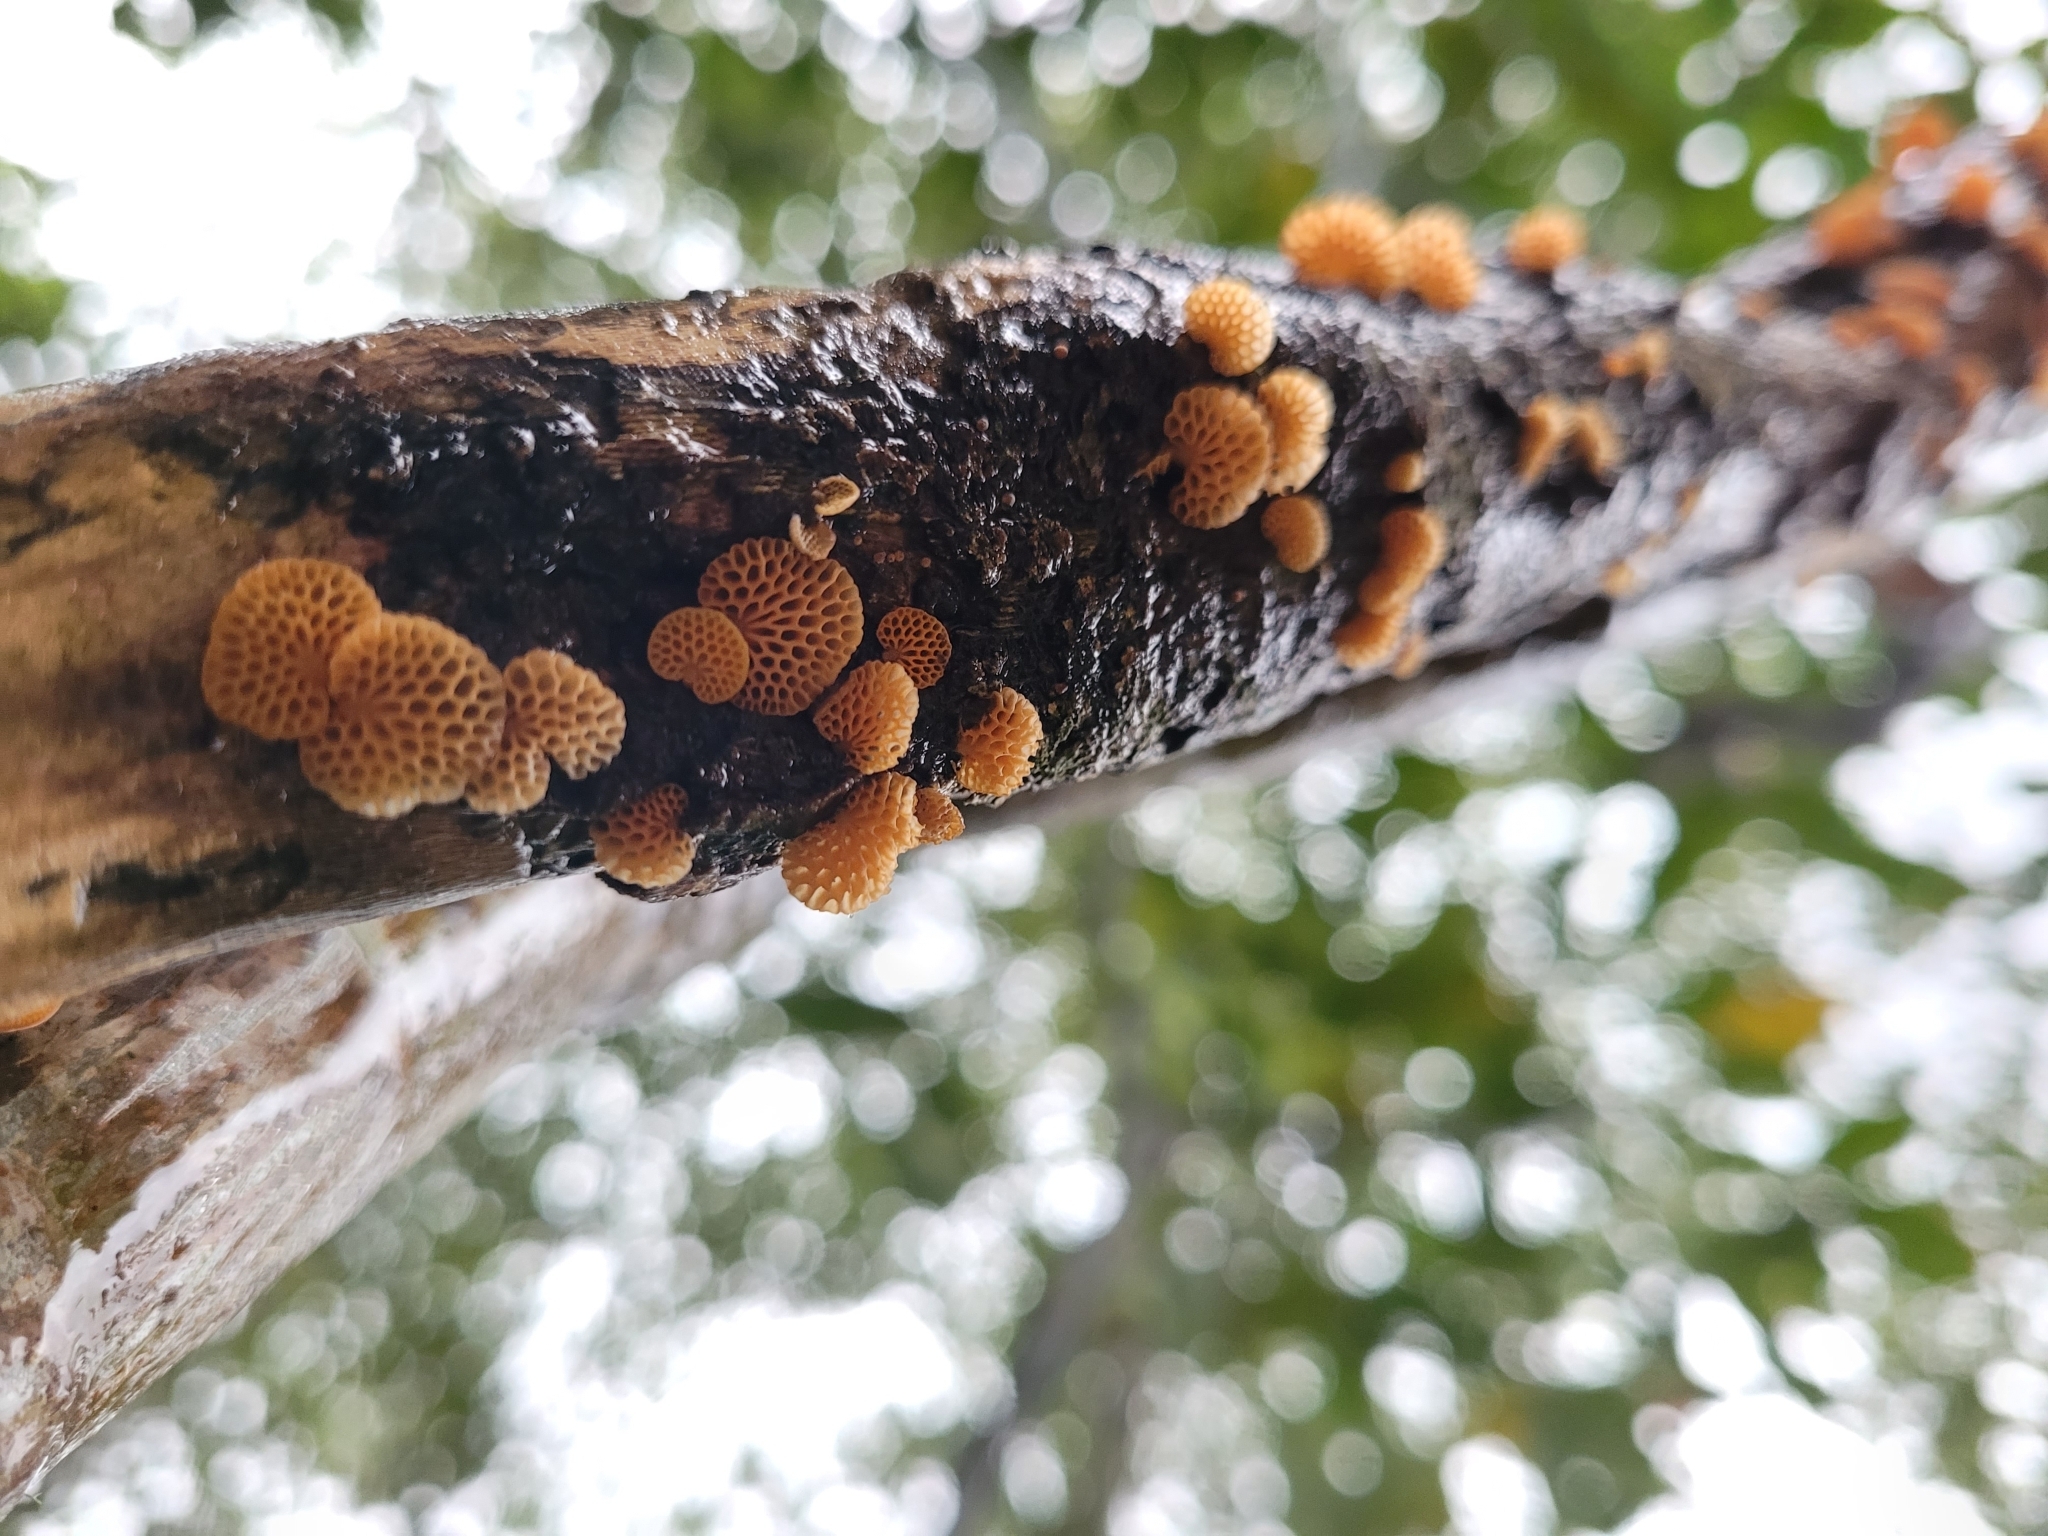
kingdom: Fungi
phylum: Basidiomycota
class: Agaricomycetes
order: Agaricales
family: Mycenaceae
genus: Favolaschia
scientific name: Favolaschia claudopus
